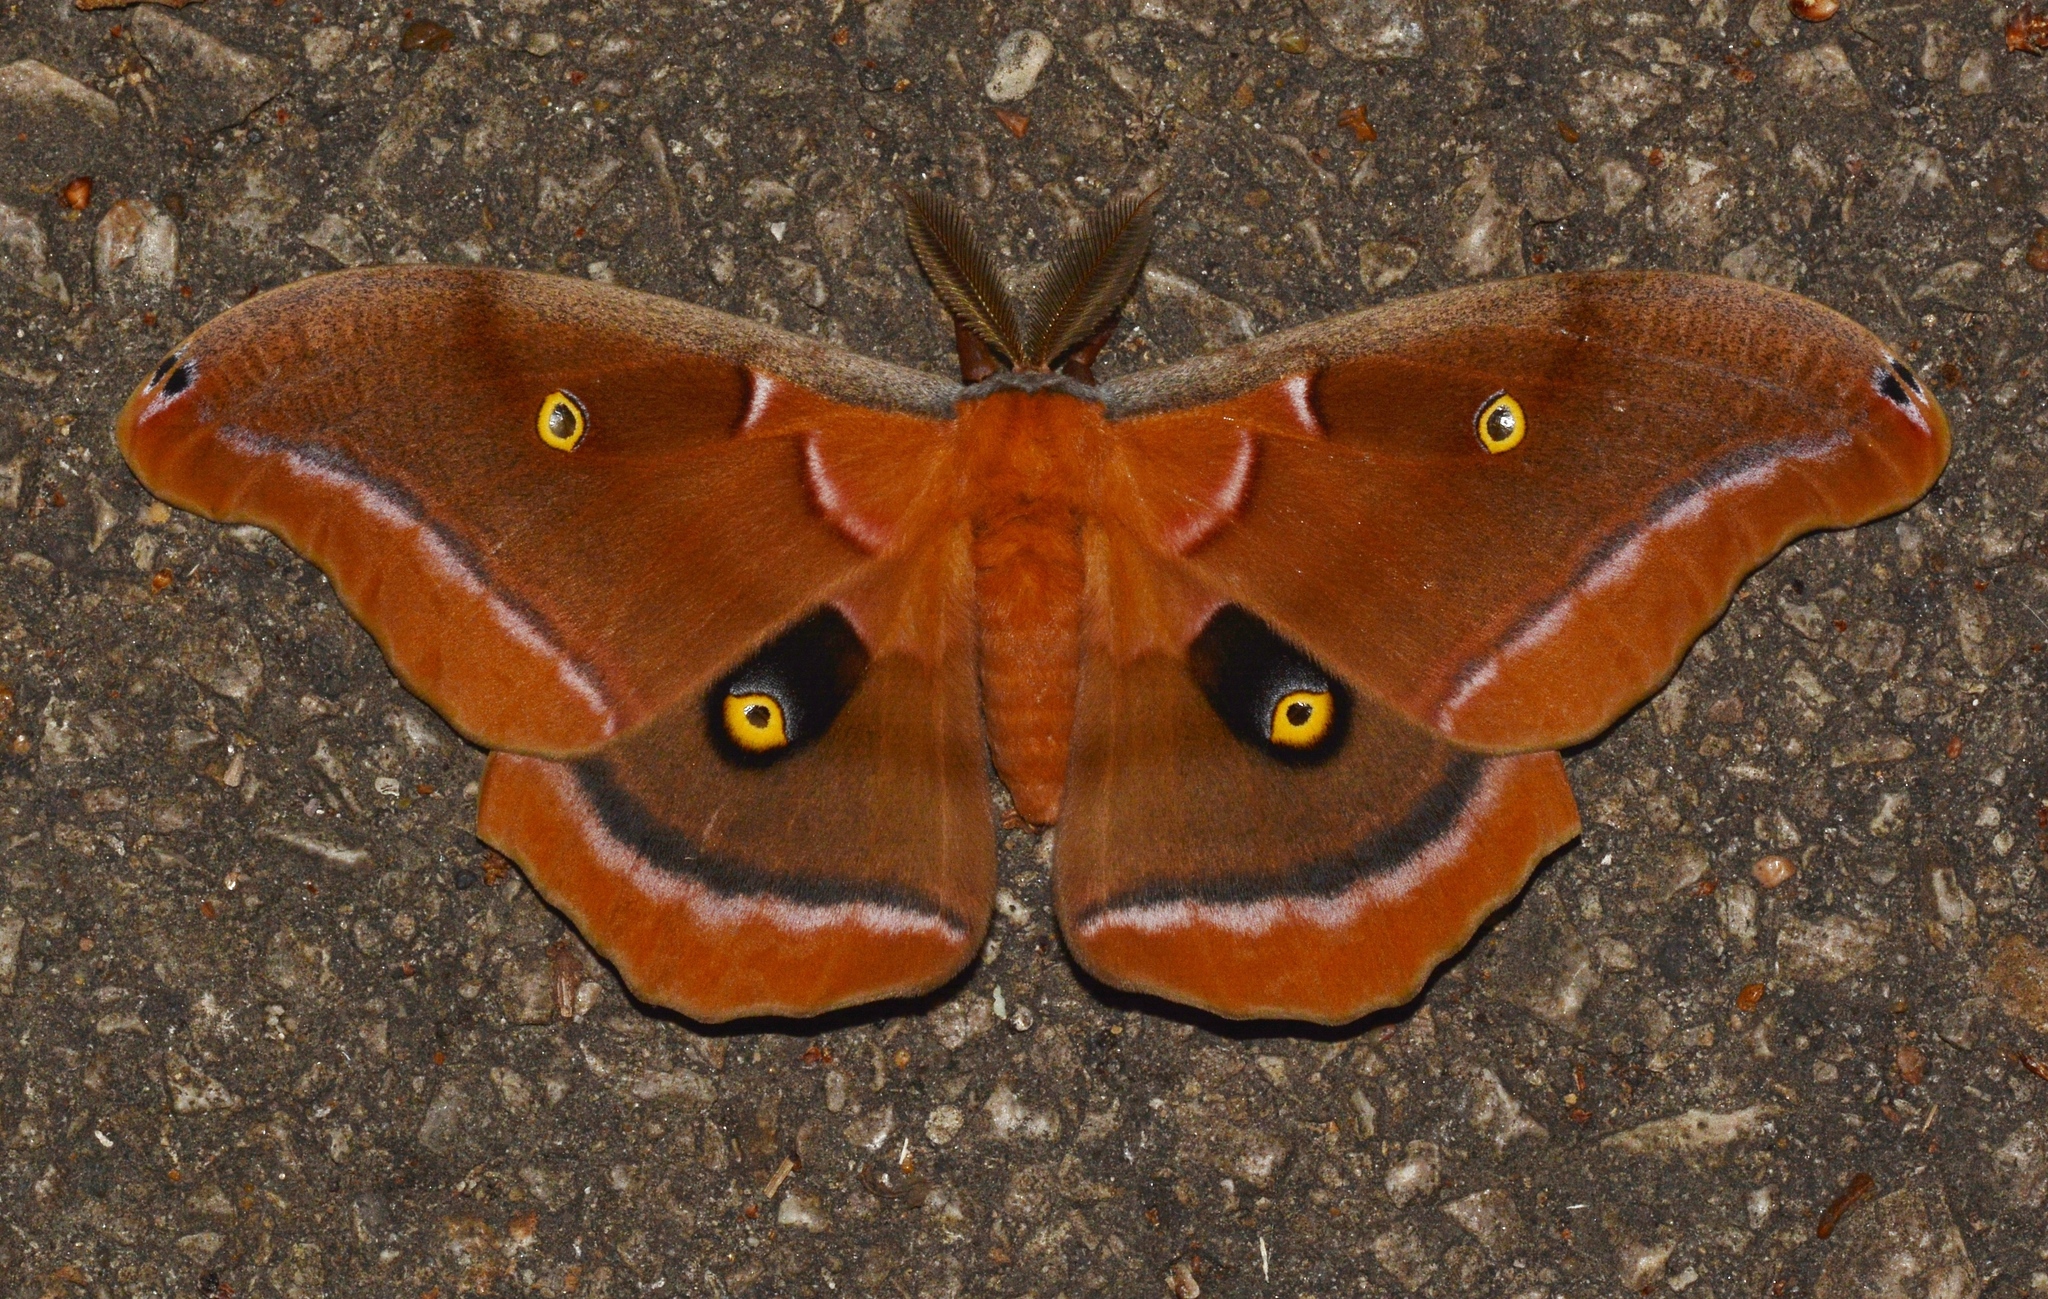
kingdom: Animalia
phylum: Arthropoda
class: Insecta
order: Lepidoptera
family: Saturniidae
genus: Antheraea
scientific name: Antheraea polyphemus
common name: Polyphemus moth
